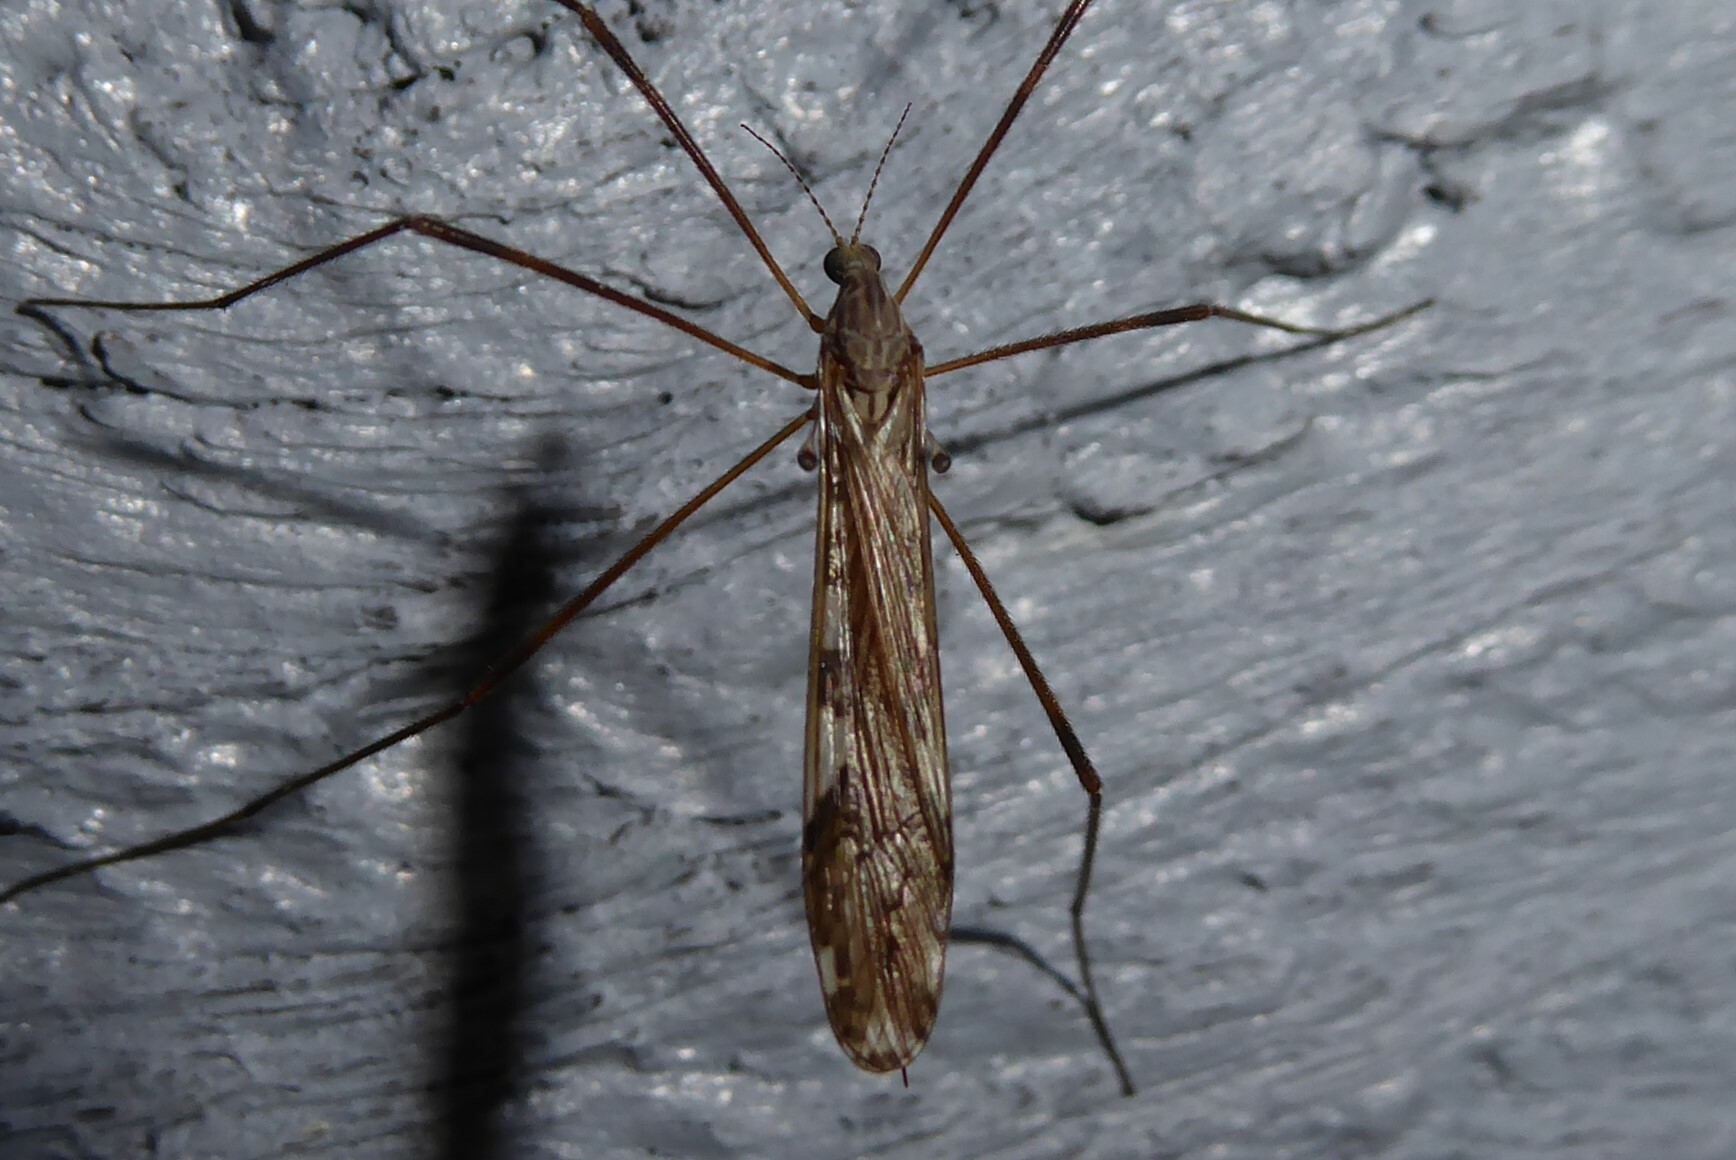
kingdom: Animalia
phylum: Arthropoda
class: Insecta
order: Diptera
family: Limoniidae
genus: Paralimnophila
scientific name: Paralimnophila skusei
